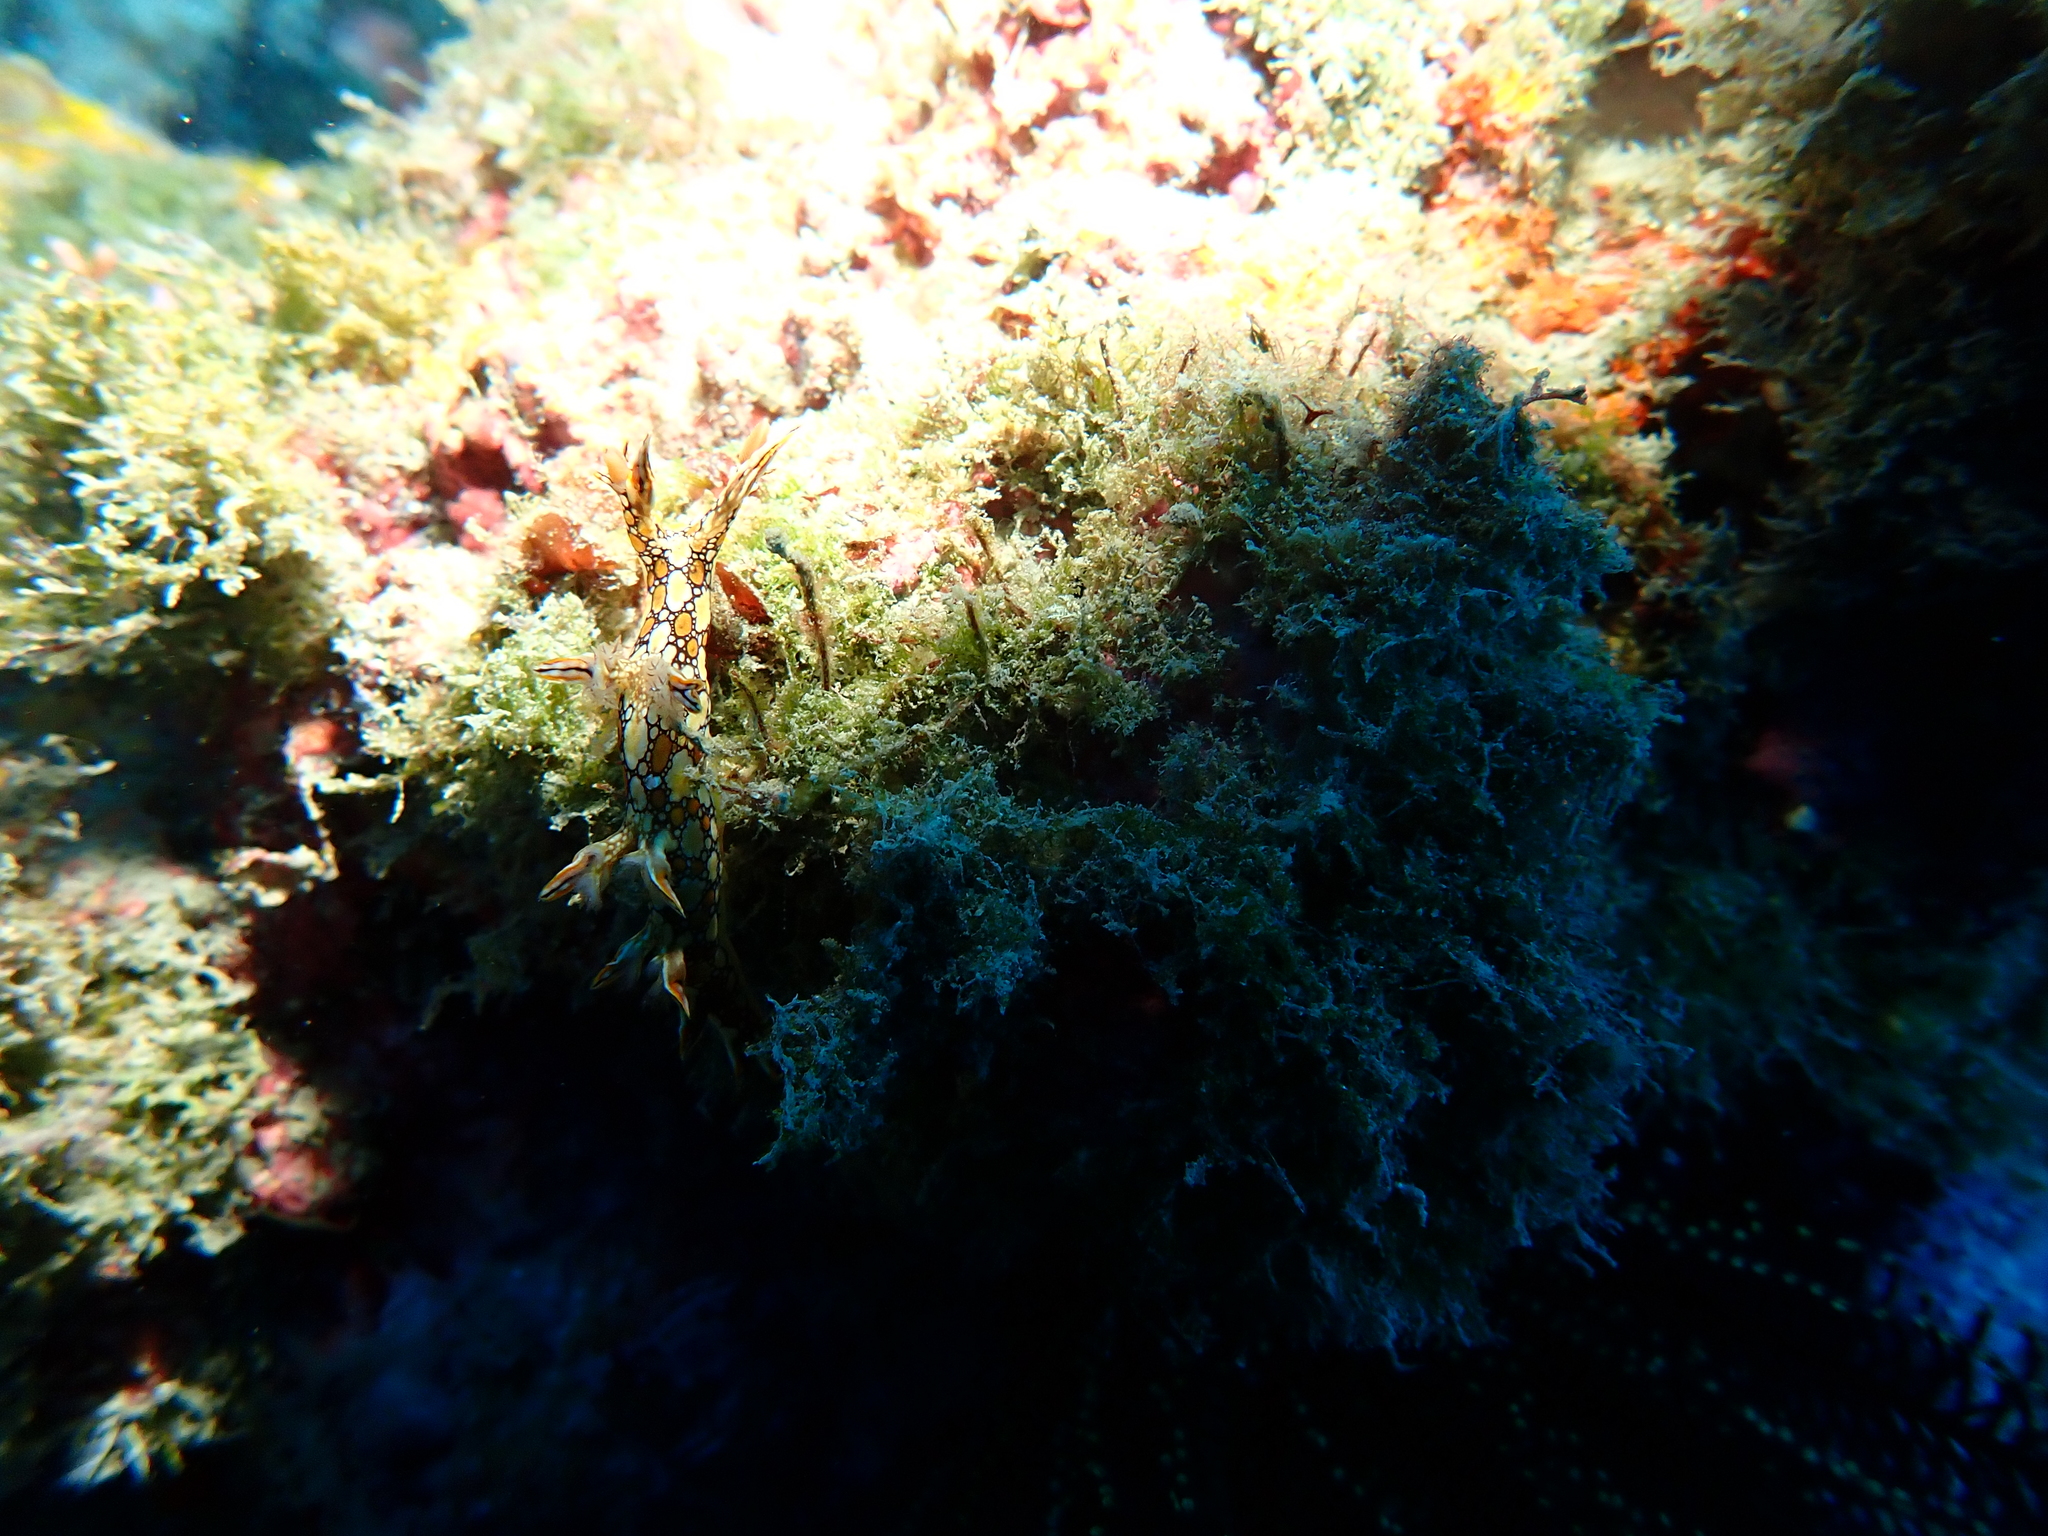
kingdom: Animalia
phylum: Mollusca
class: Gastropoda
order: Nudibranchia
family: Bornellidae
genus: Bornella
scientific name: Bornella anguilla
